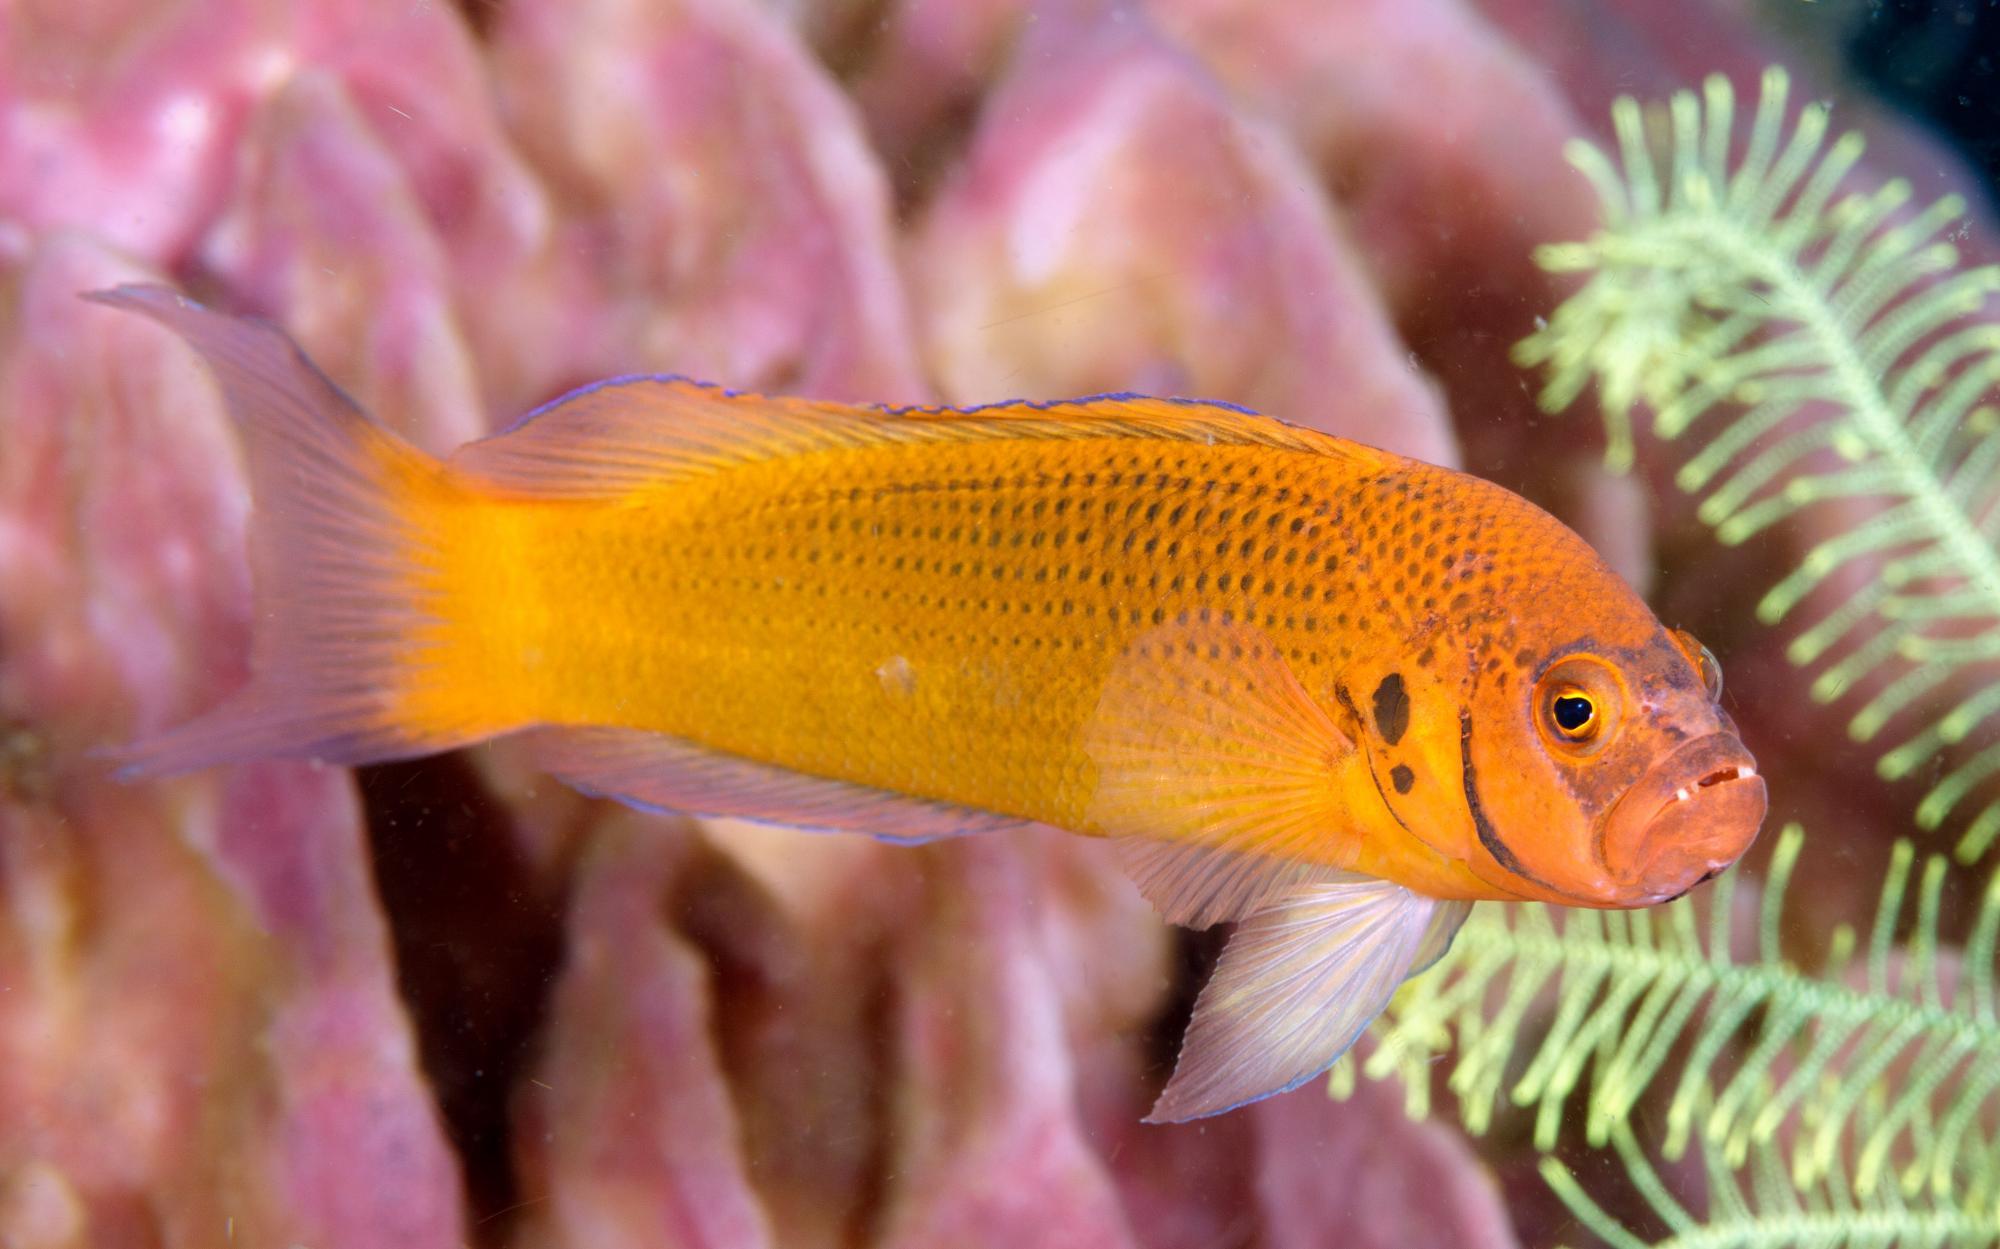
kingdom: Animalia
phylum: Chordata
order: Perciformes
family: Pseudochromidae
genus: Pseudochromis
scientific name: Pseudochromis moorei
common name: Jaguar dottyback
